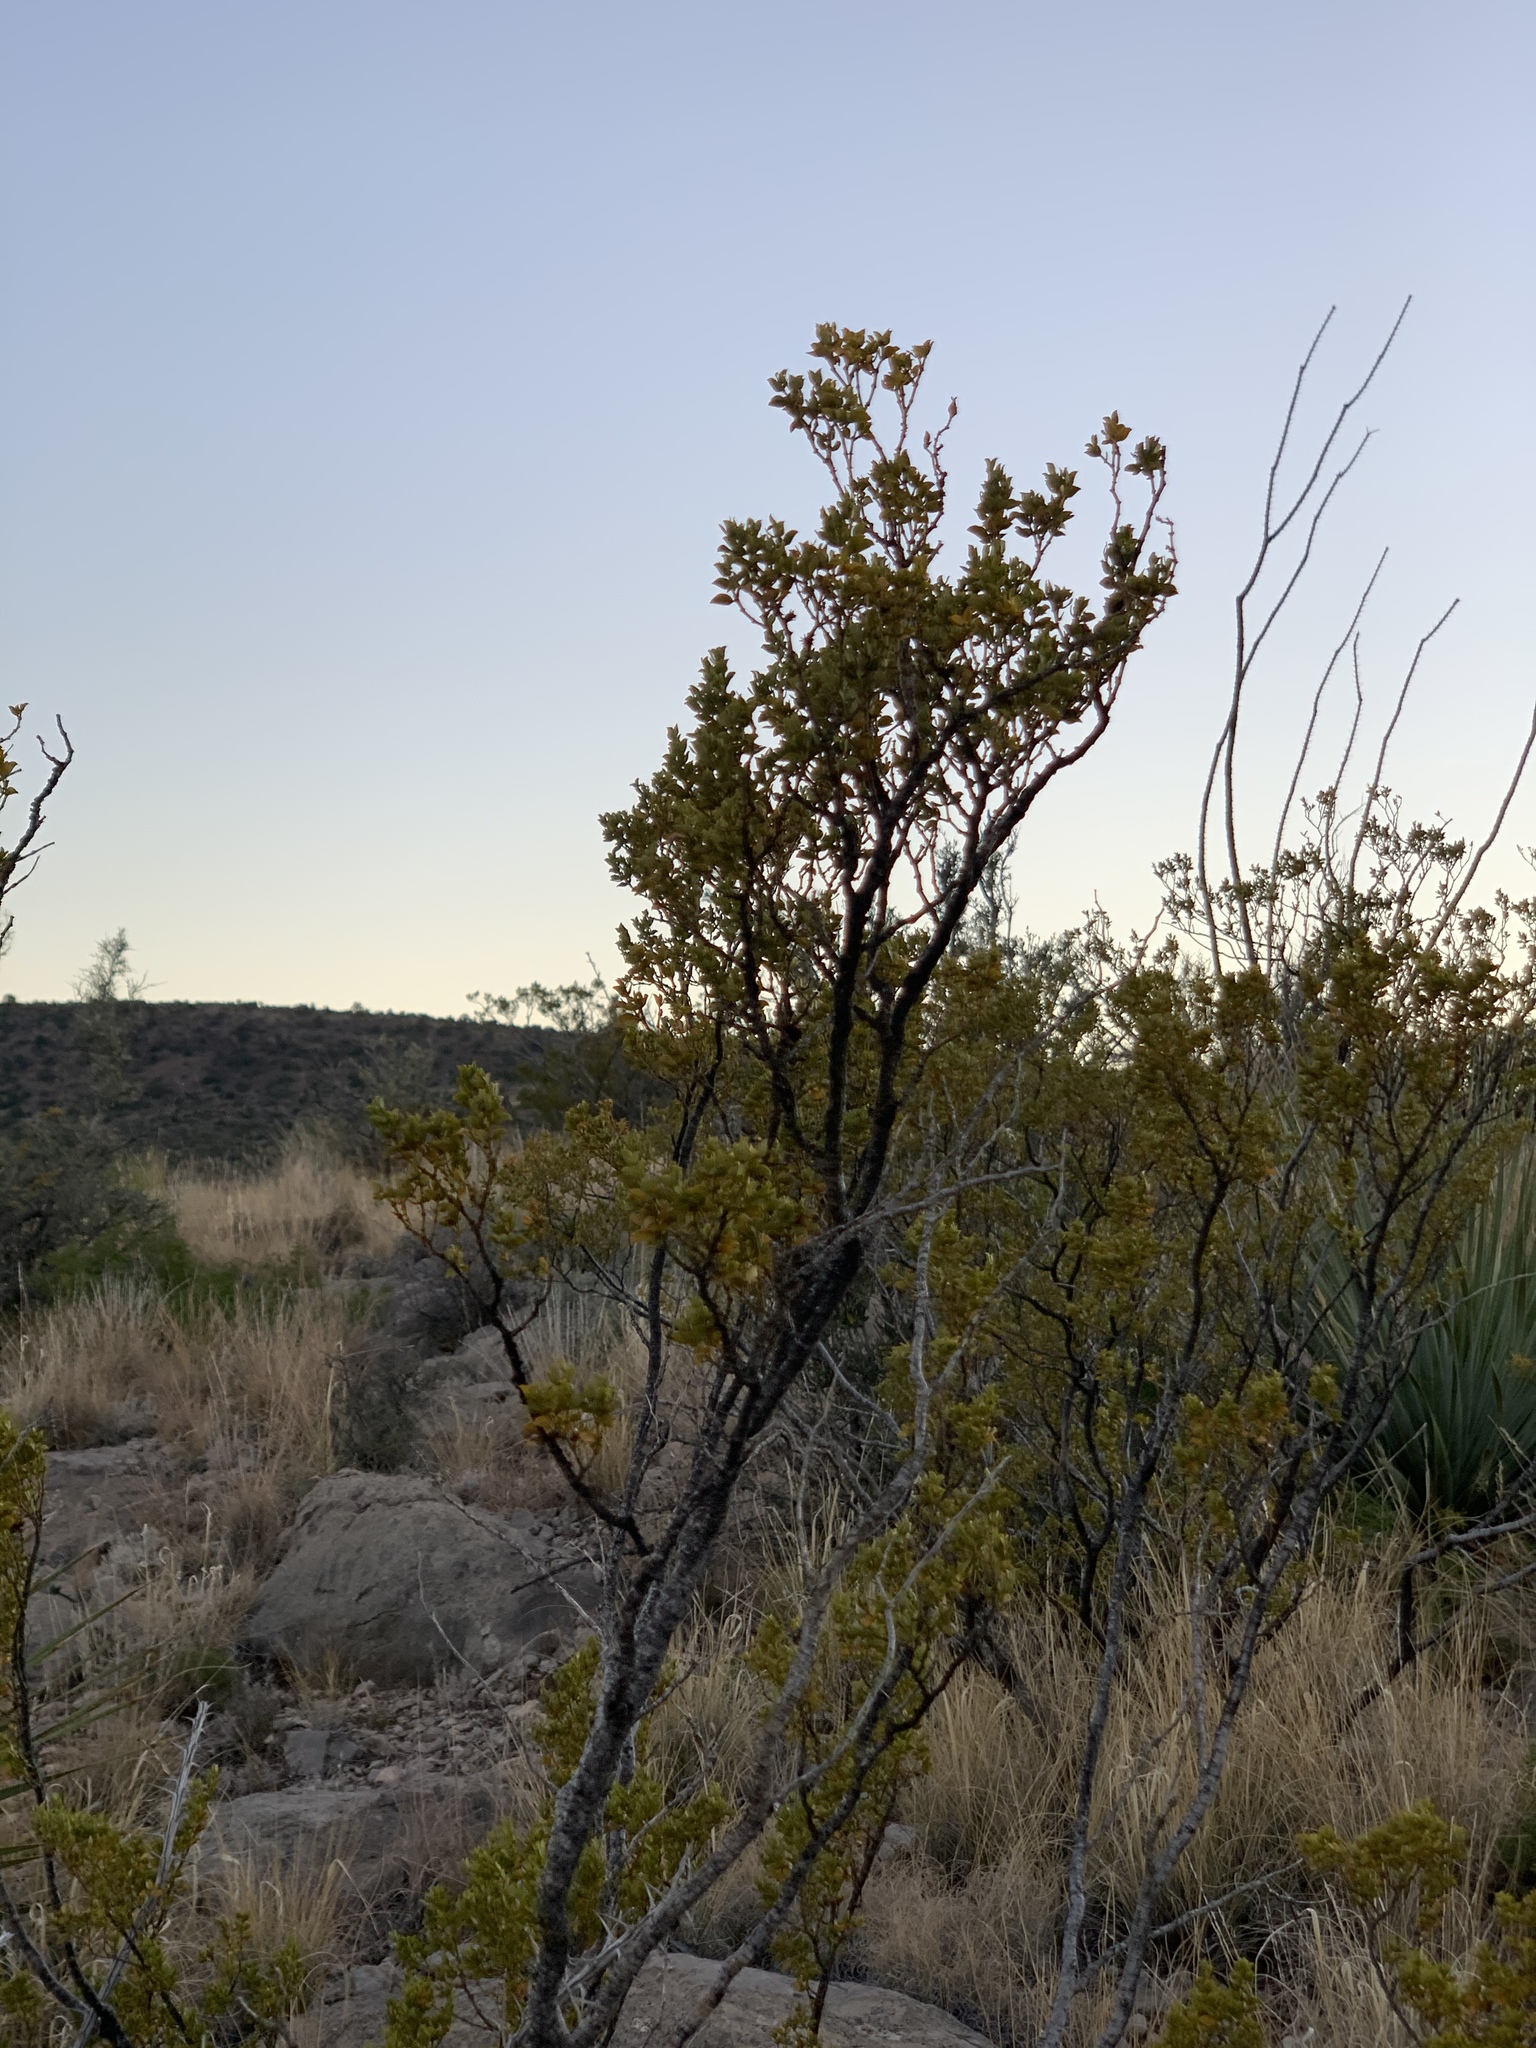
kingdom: Plantae
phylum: Tracheophyta
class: Magnoliopsida
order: Zygophyllales
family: Zygophyllaceae
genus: Larrea
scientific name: Larrea tridentata
